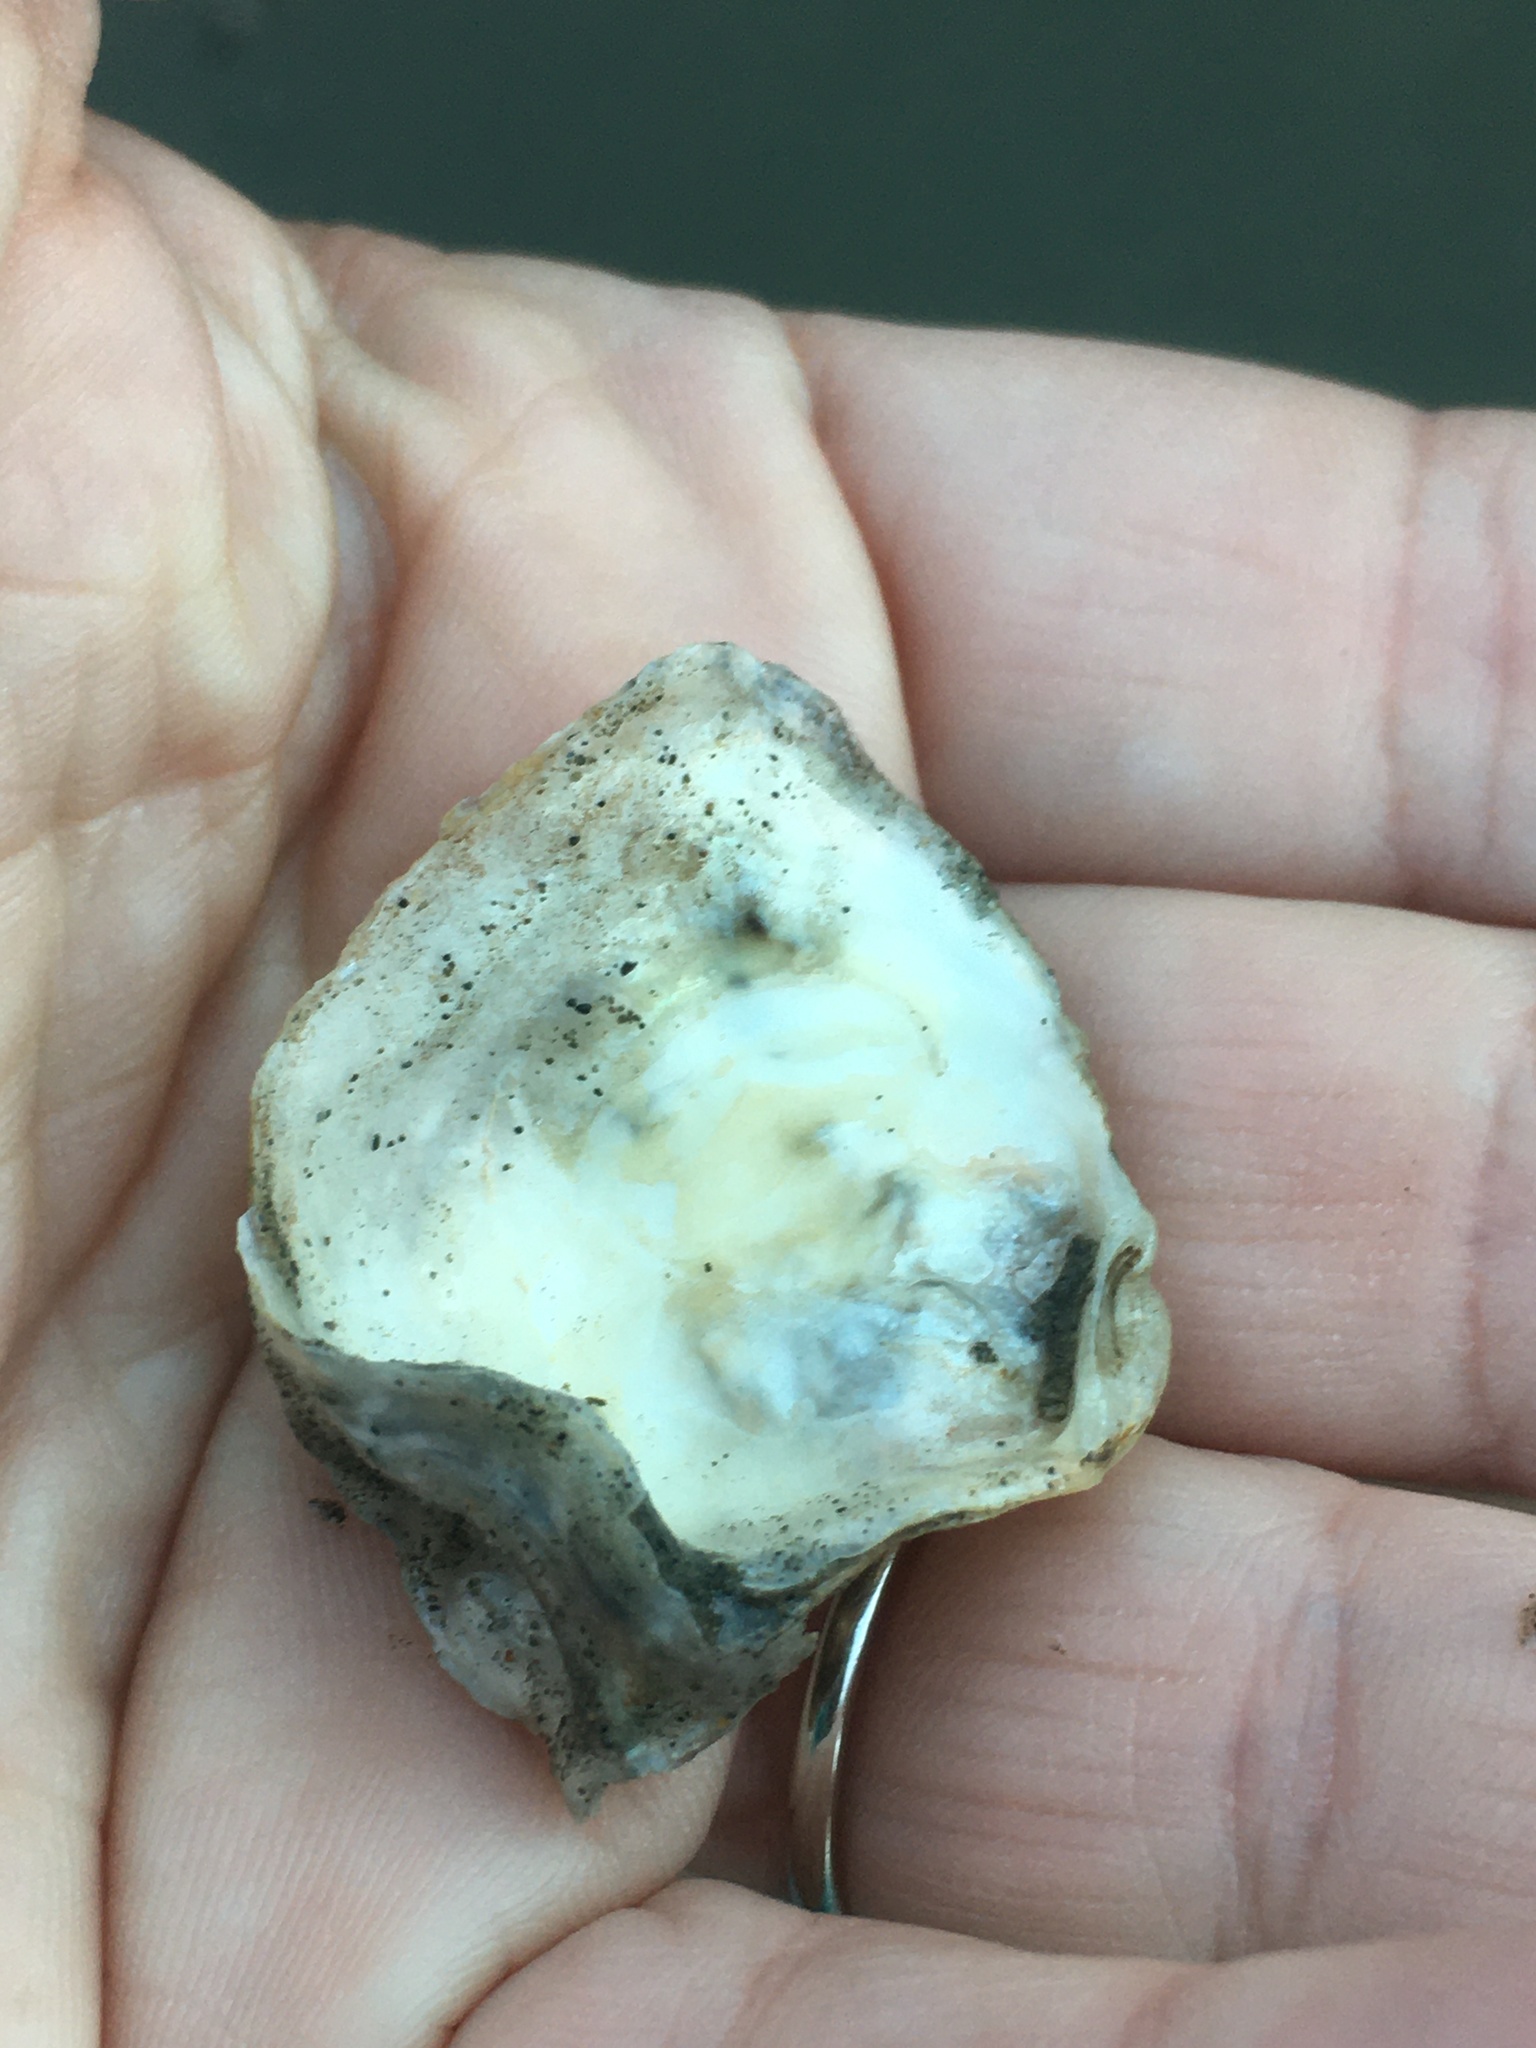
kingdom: Animalia
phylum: Mollusca
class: Bivalvia
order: Ostreida
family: Ostreidae
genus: Ostrea
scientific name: Ostrea lurida
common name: Olympia flat oyster
